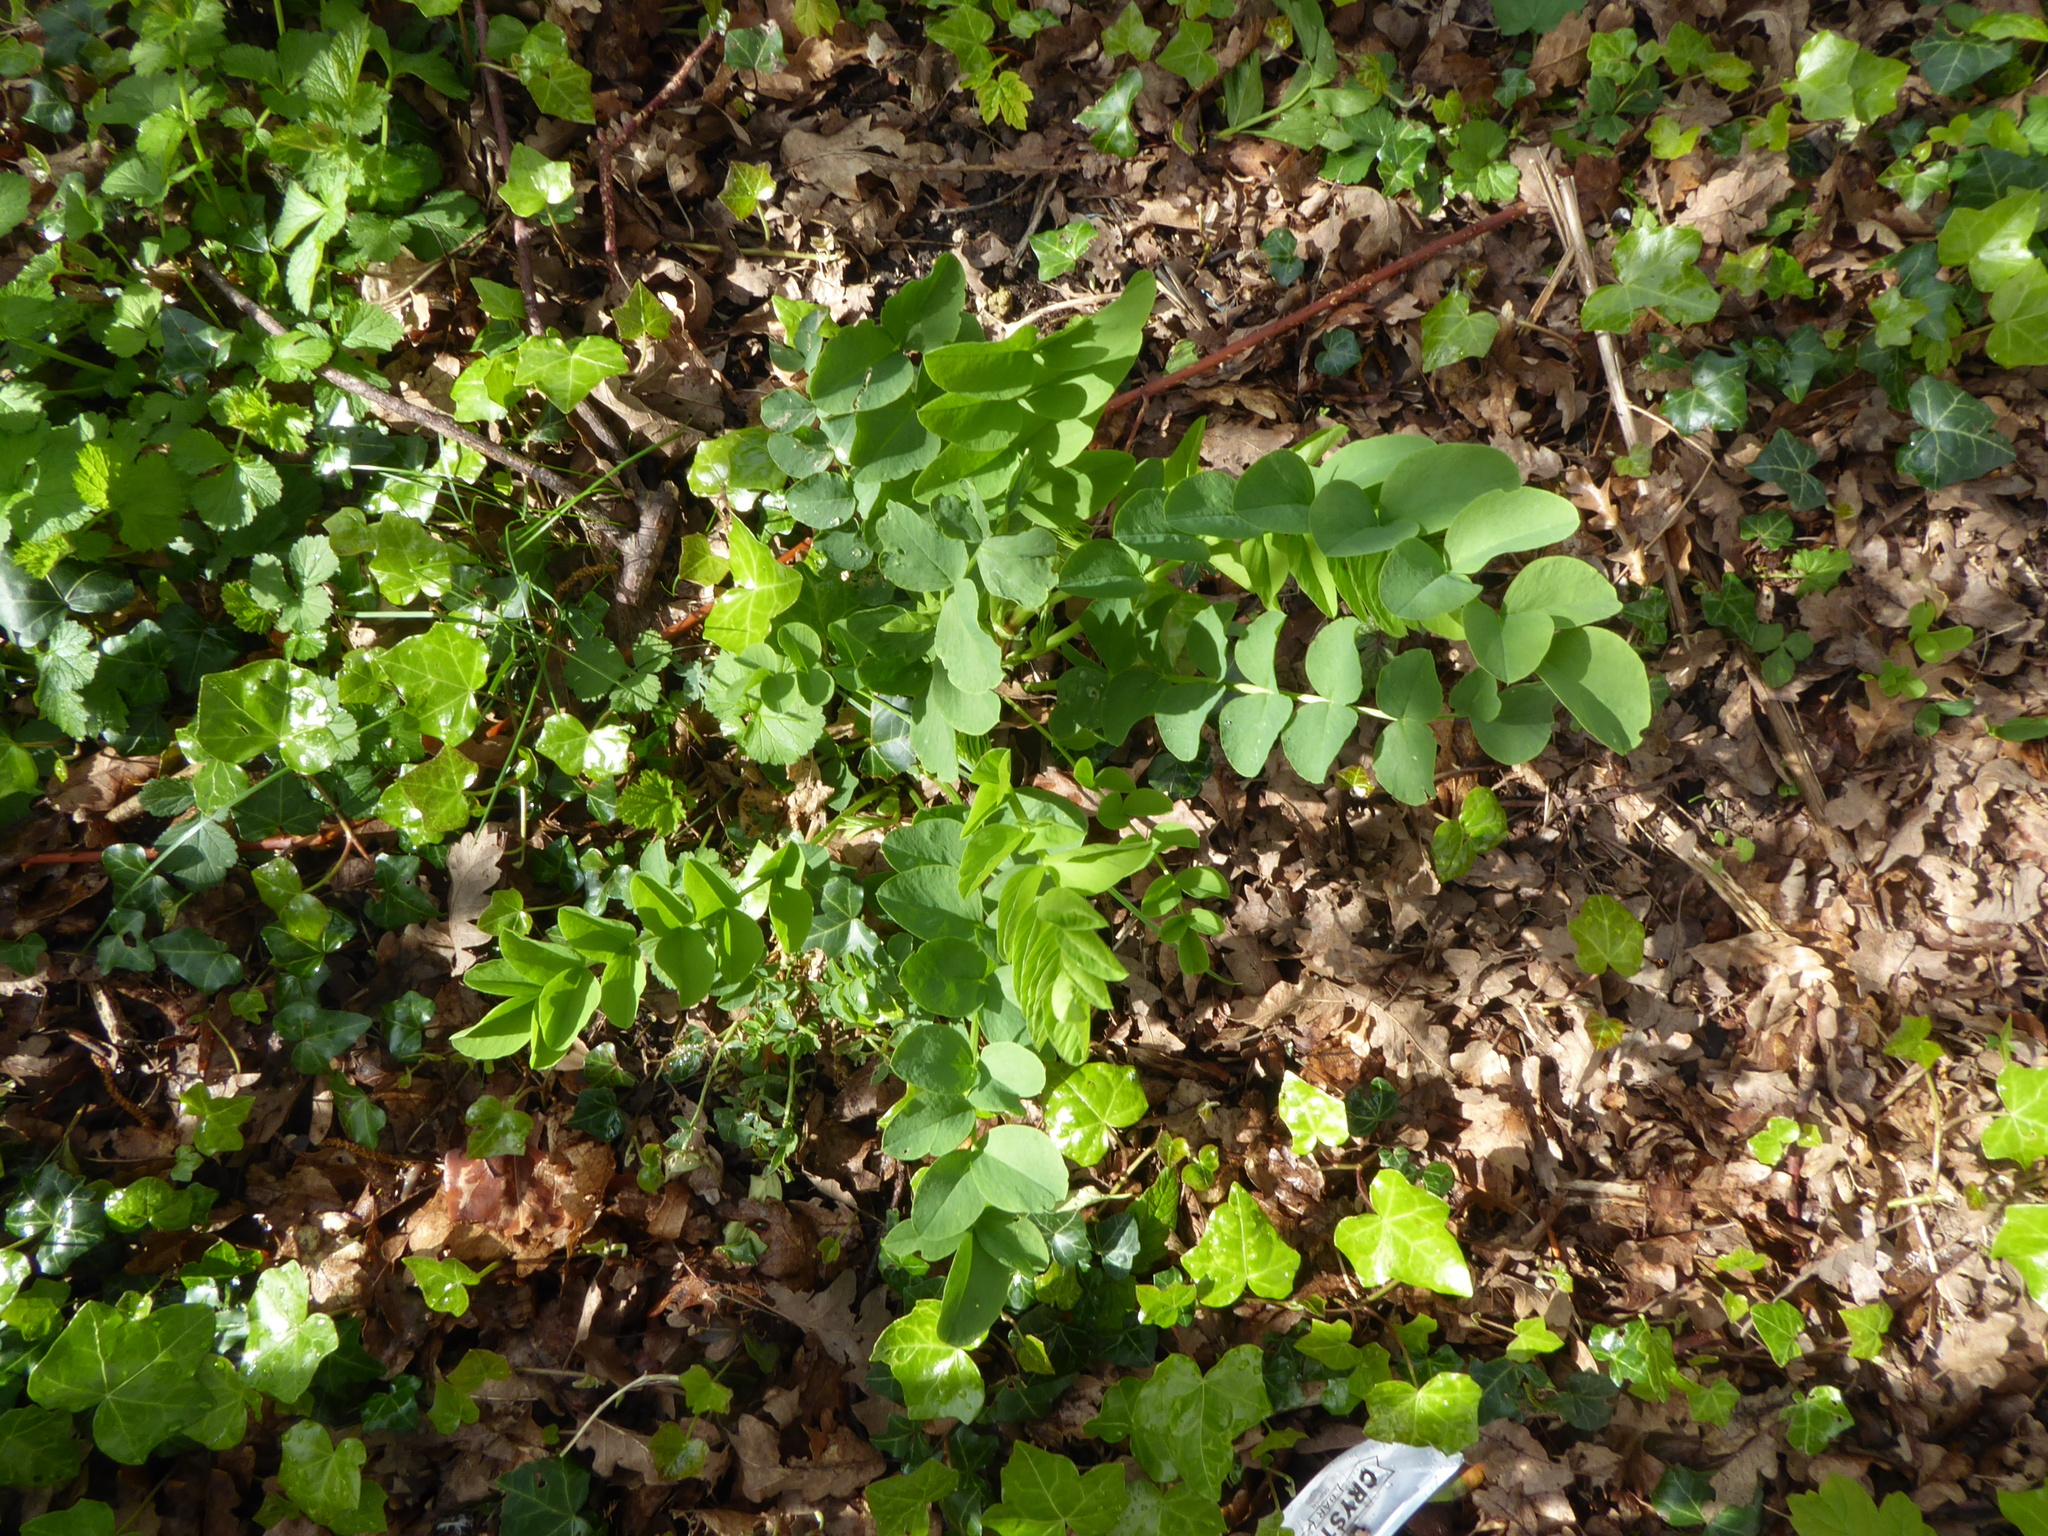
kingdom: Plantae
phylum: Tracheophyta
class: Magnoliopsida
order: Fabales
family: Fabaceae
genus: Galega
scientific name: Galega officinalis
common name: Goat's-rue
